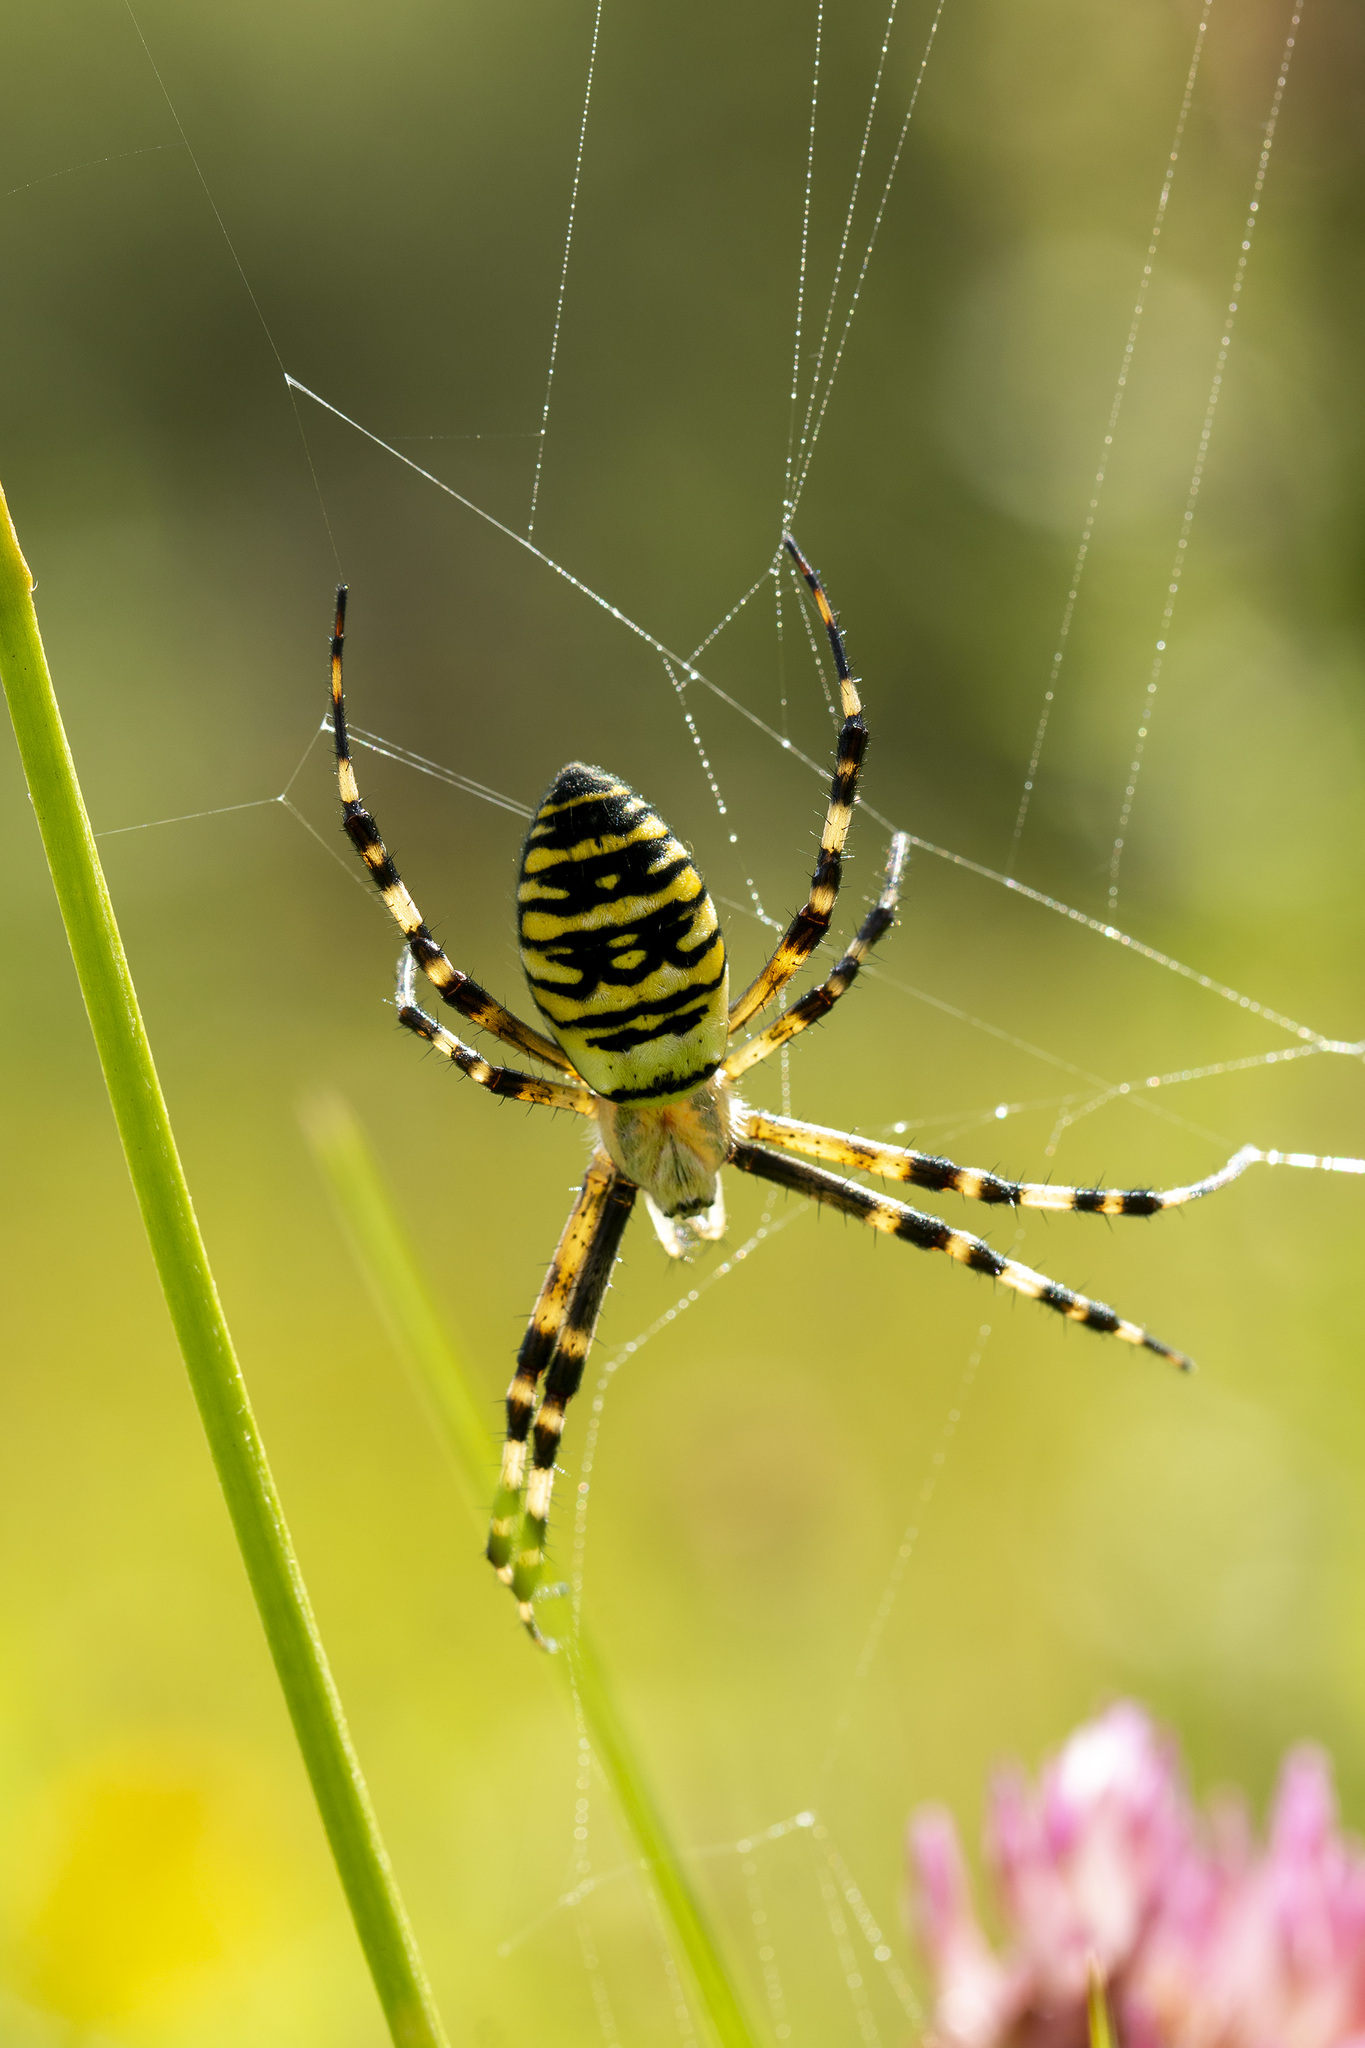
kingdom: Animalia
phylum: Arthropoda
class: Arachnida
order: Araneae
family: Araneidae
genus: Argiope
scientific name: Argiope bruennichi
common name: Wasp spider
